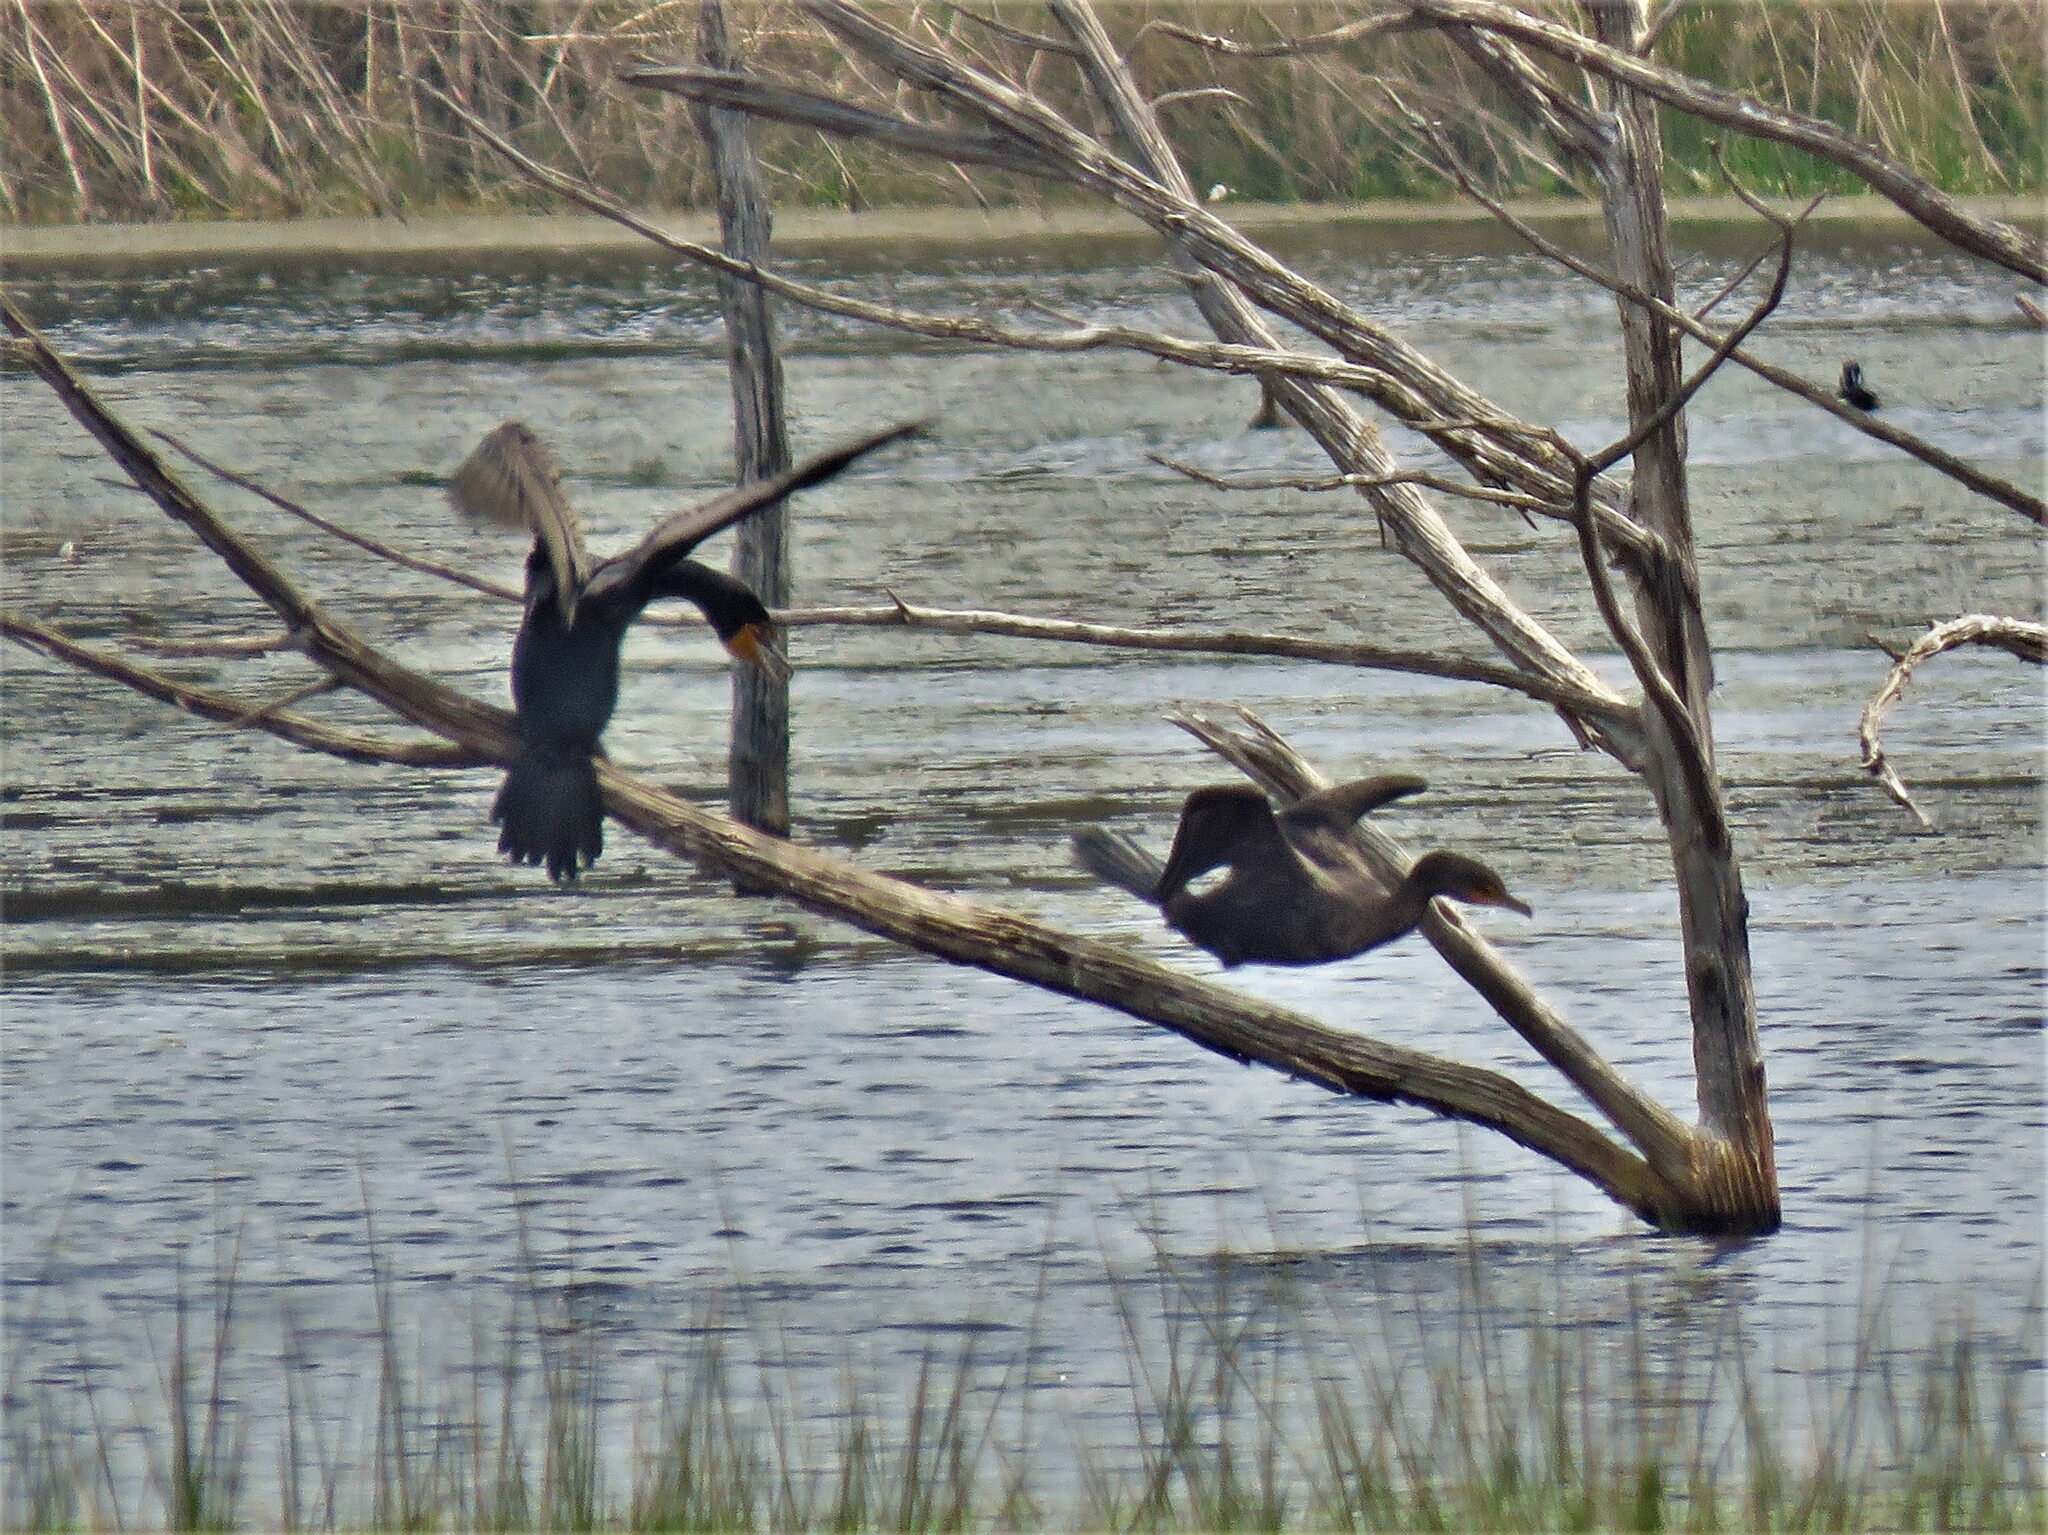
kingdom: Animalia
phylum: Chordata
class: Aves
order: Suliformes
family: Phalacrocoracidae
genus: Phalacrocorax
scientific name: Phalacrocorax auritus
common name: Double-crested cormorant
